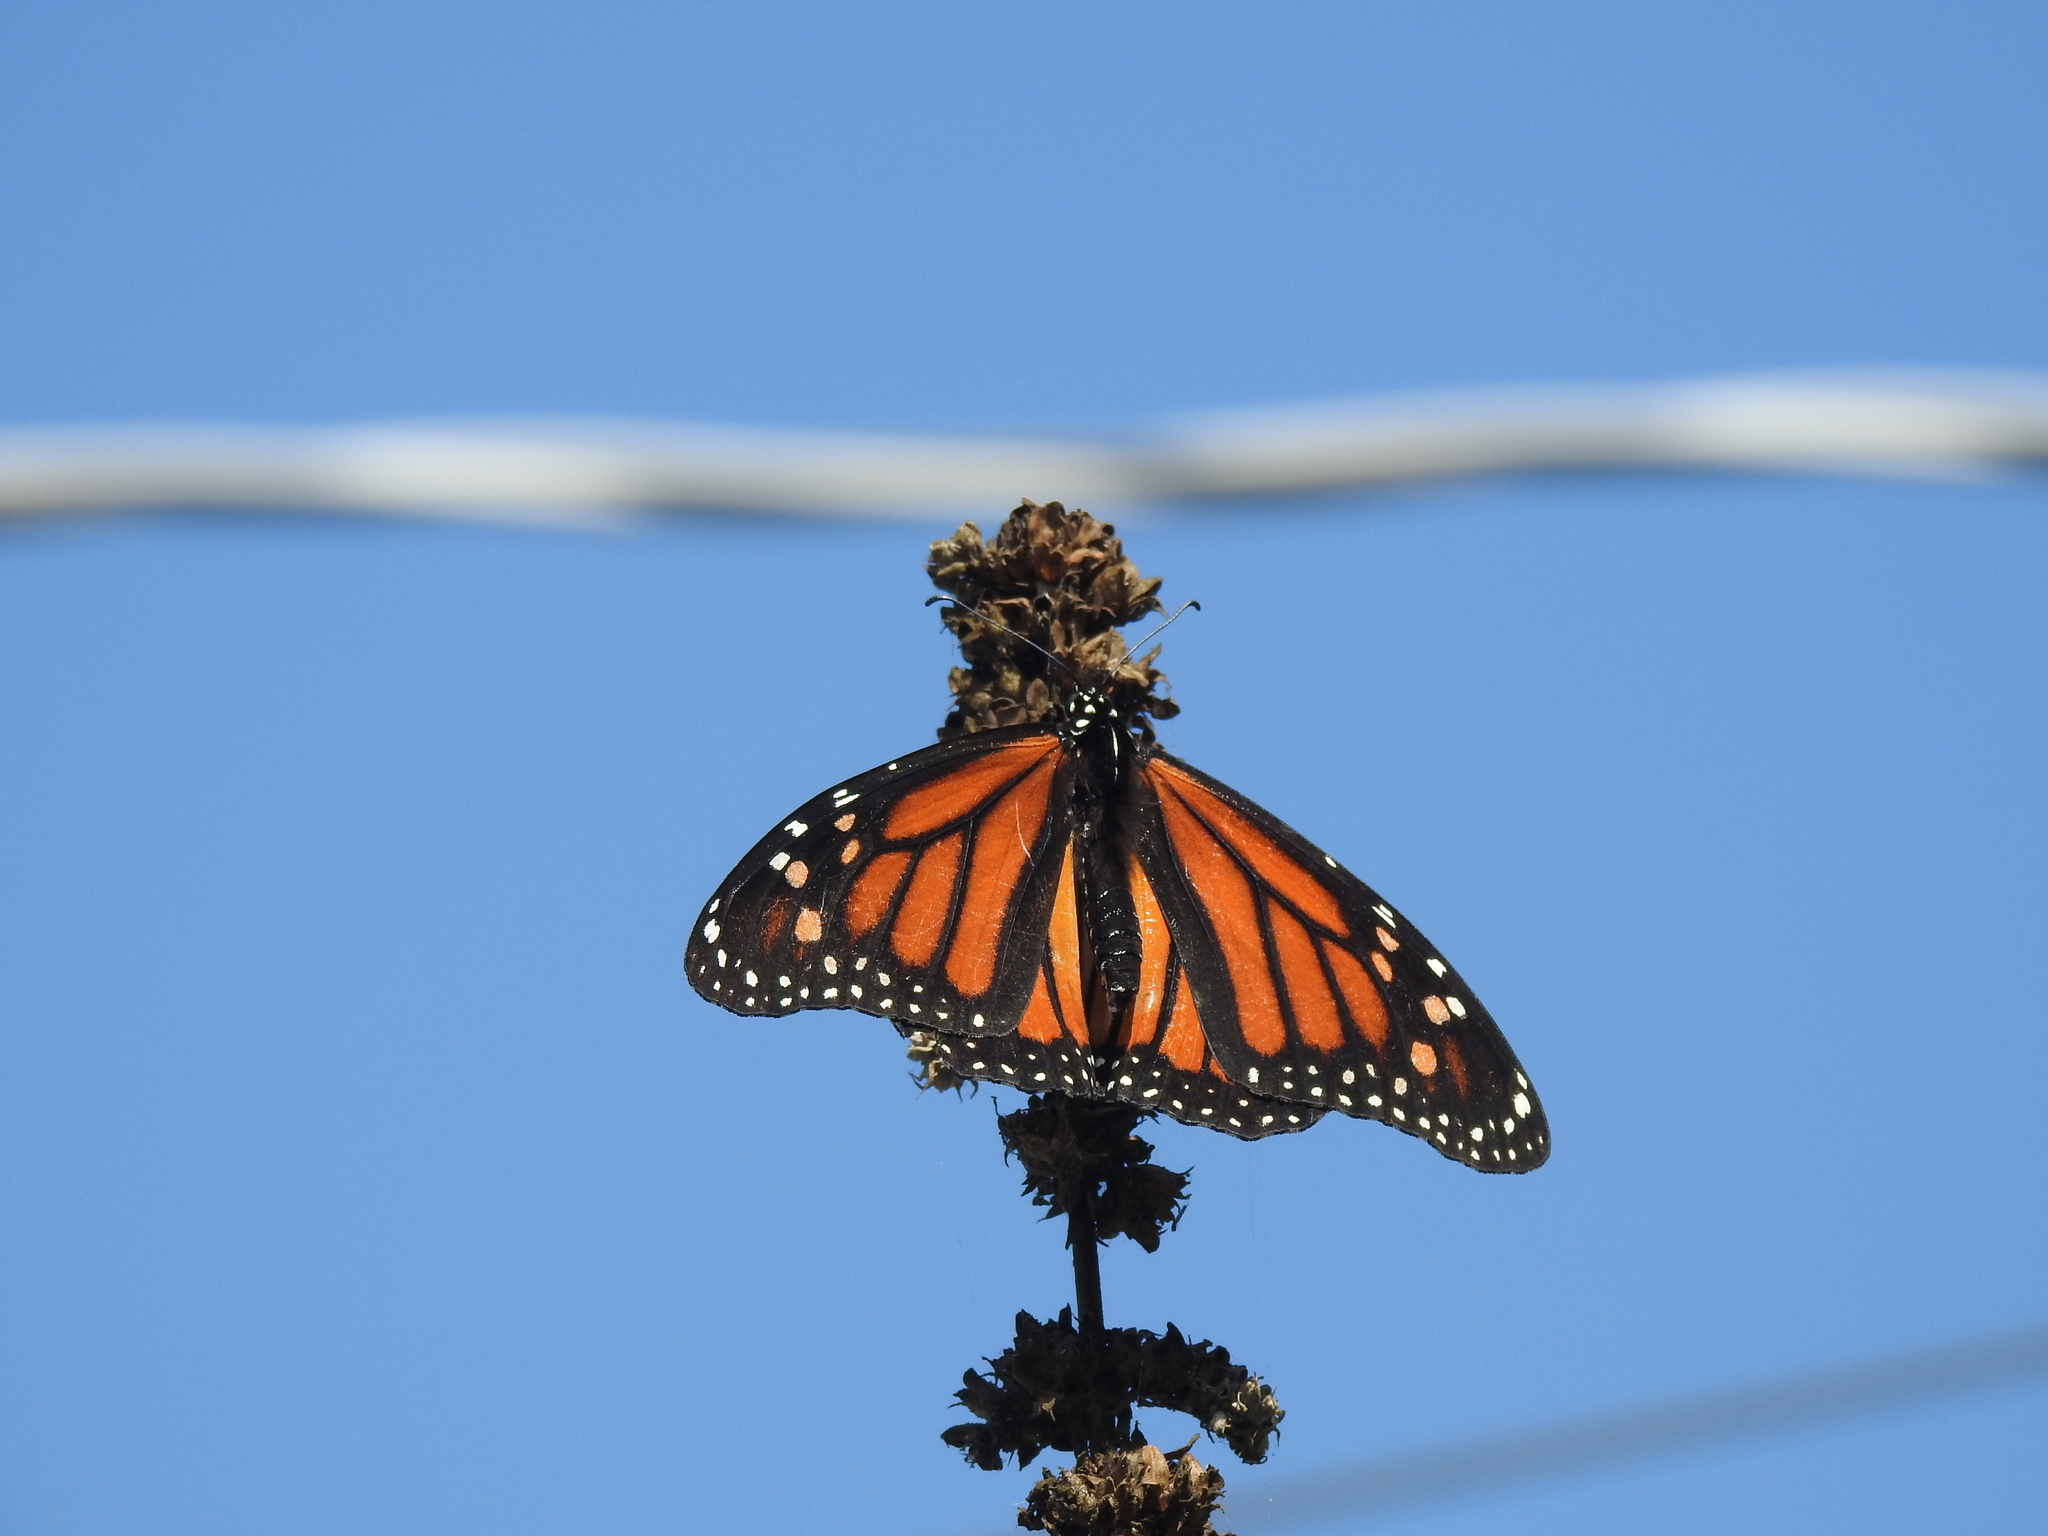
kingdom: Animalia
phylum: Arthropoda
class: Insecta
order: Lepidoptera
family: Nymphalidae
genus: Danaus
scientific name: Danaus plexippus
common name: Monarch
